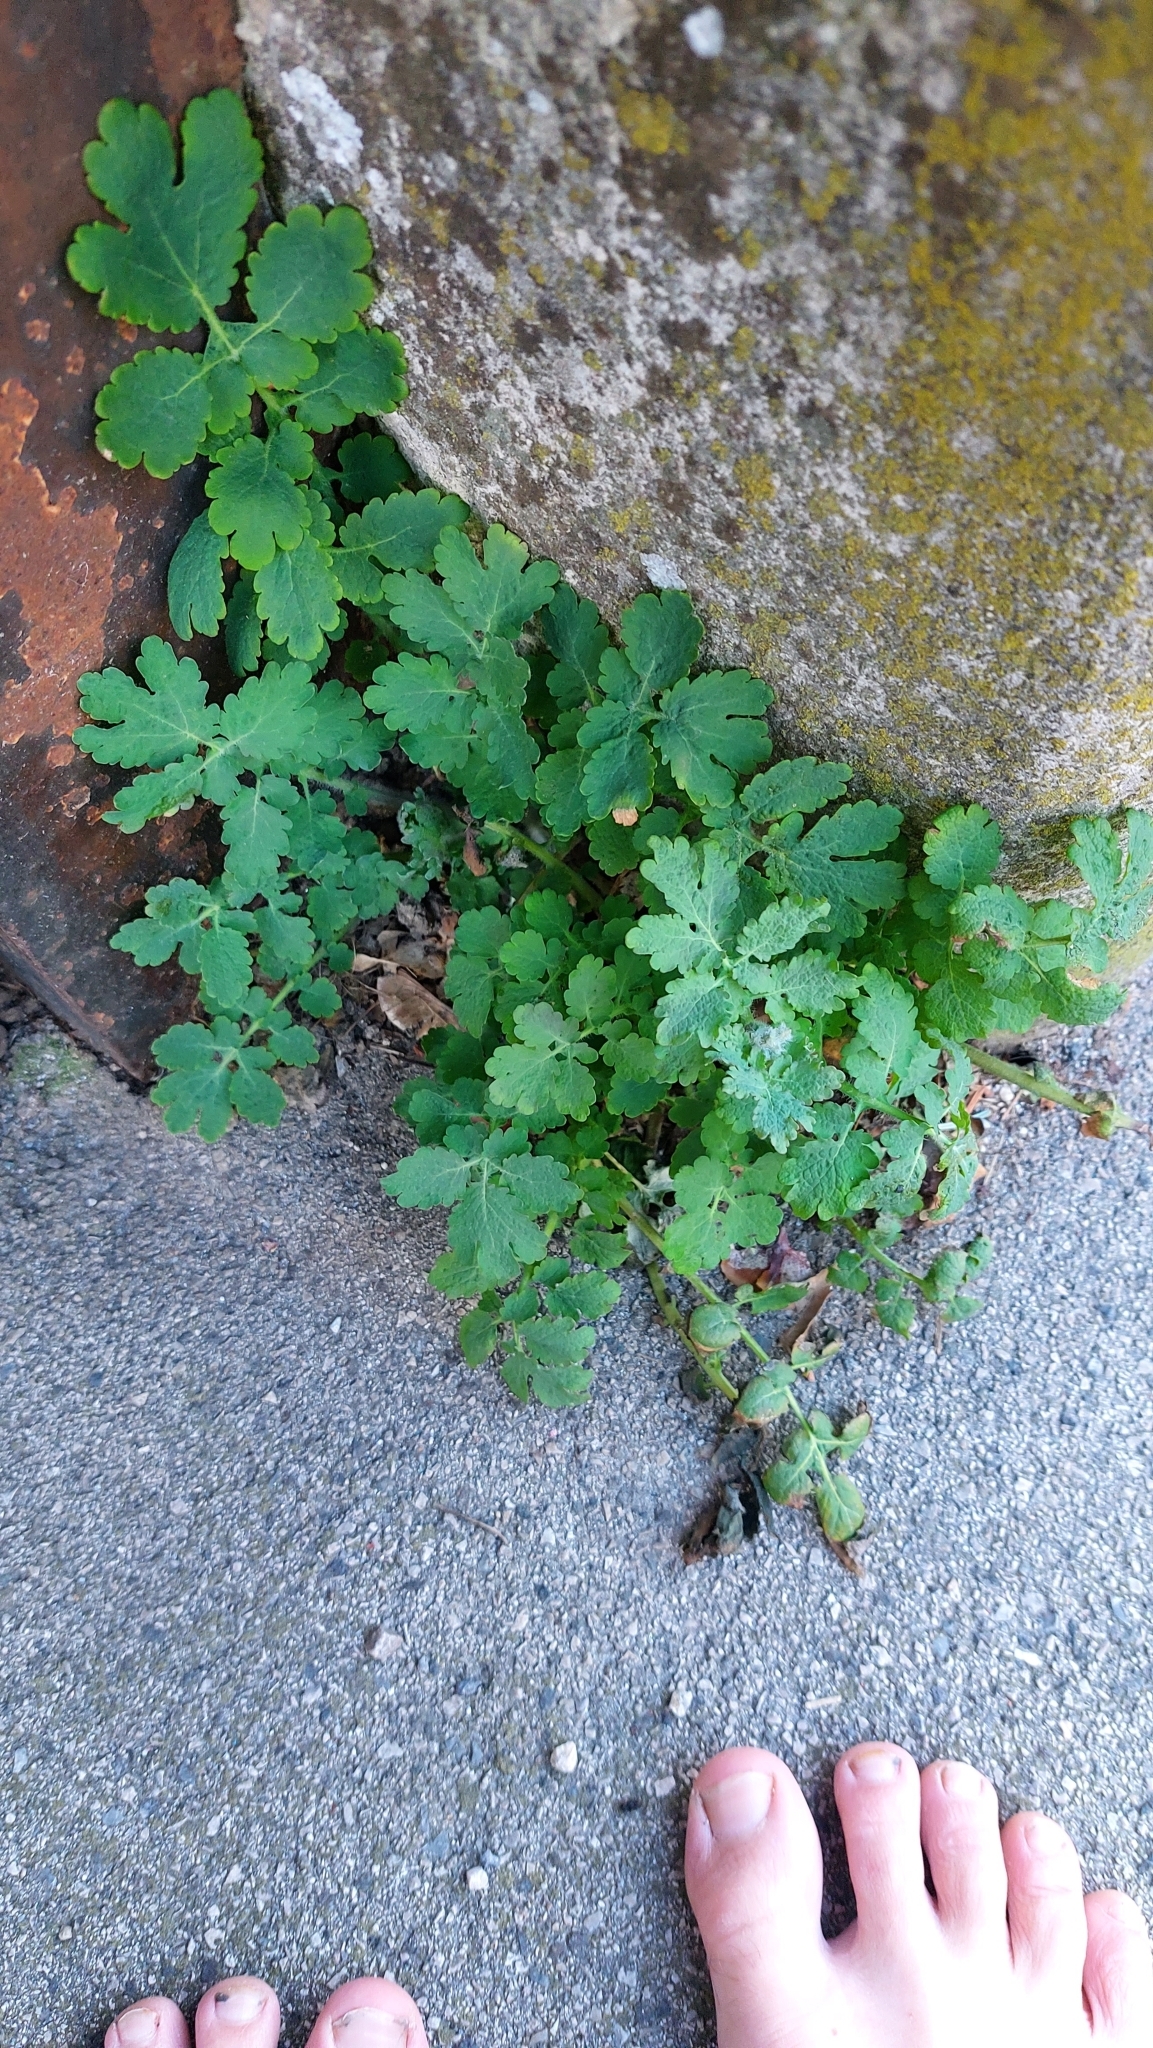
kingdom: Plantae
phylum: Tracheophyta
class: Magnoliopsida
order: Ranunculales
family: Papaveraceae
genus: Chelidonium
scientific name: Chelidonium majus
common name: Greater celandine
